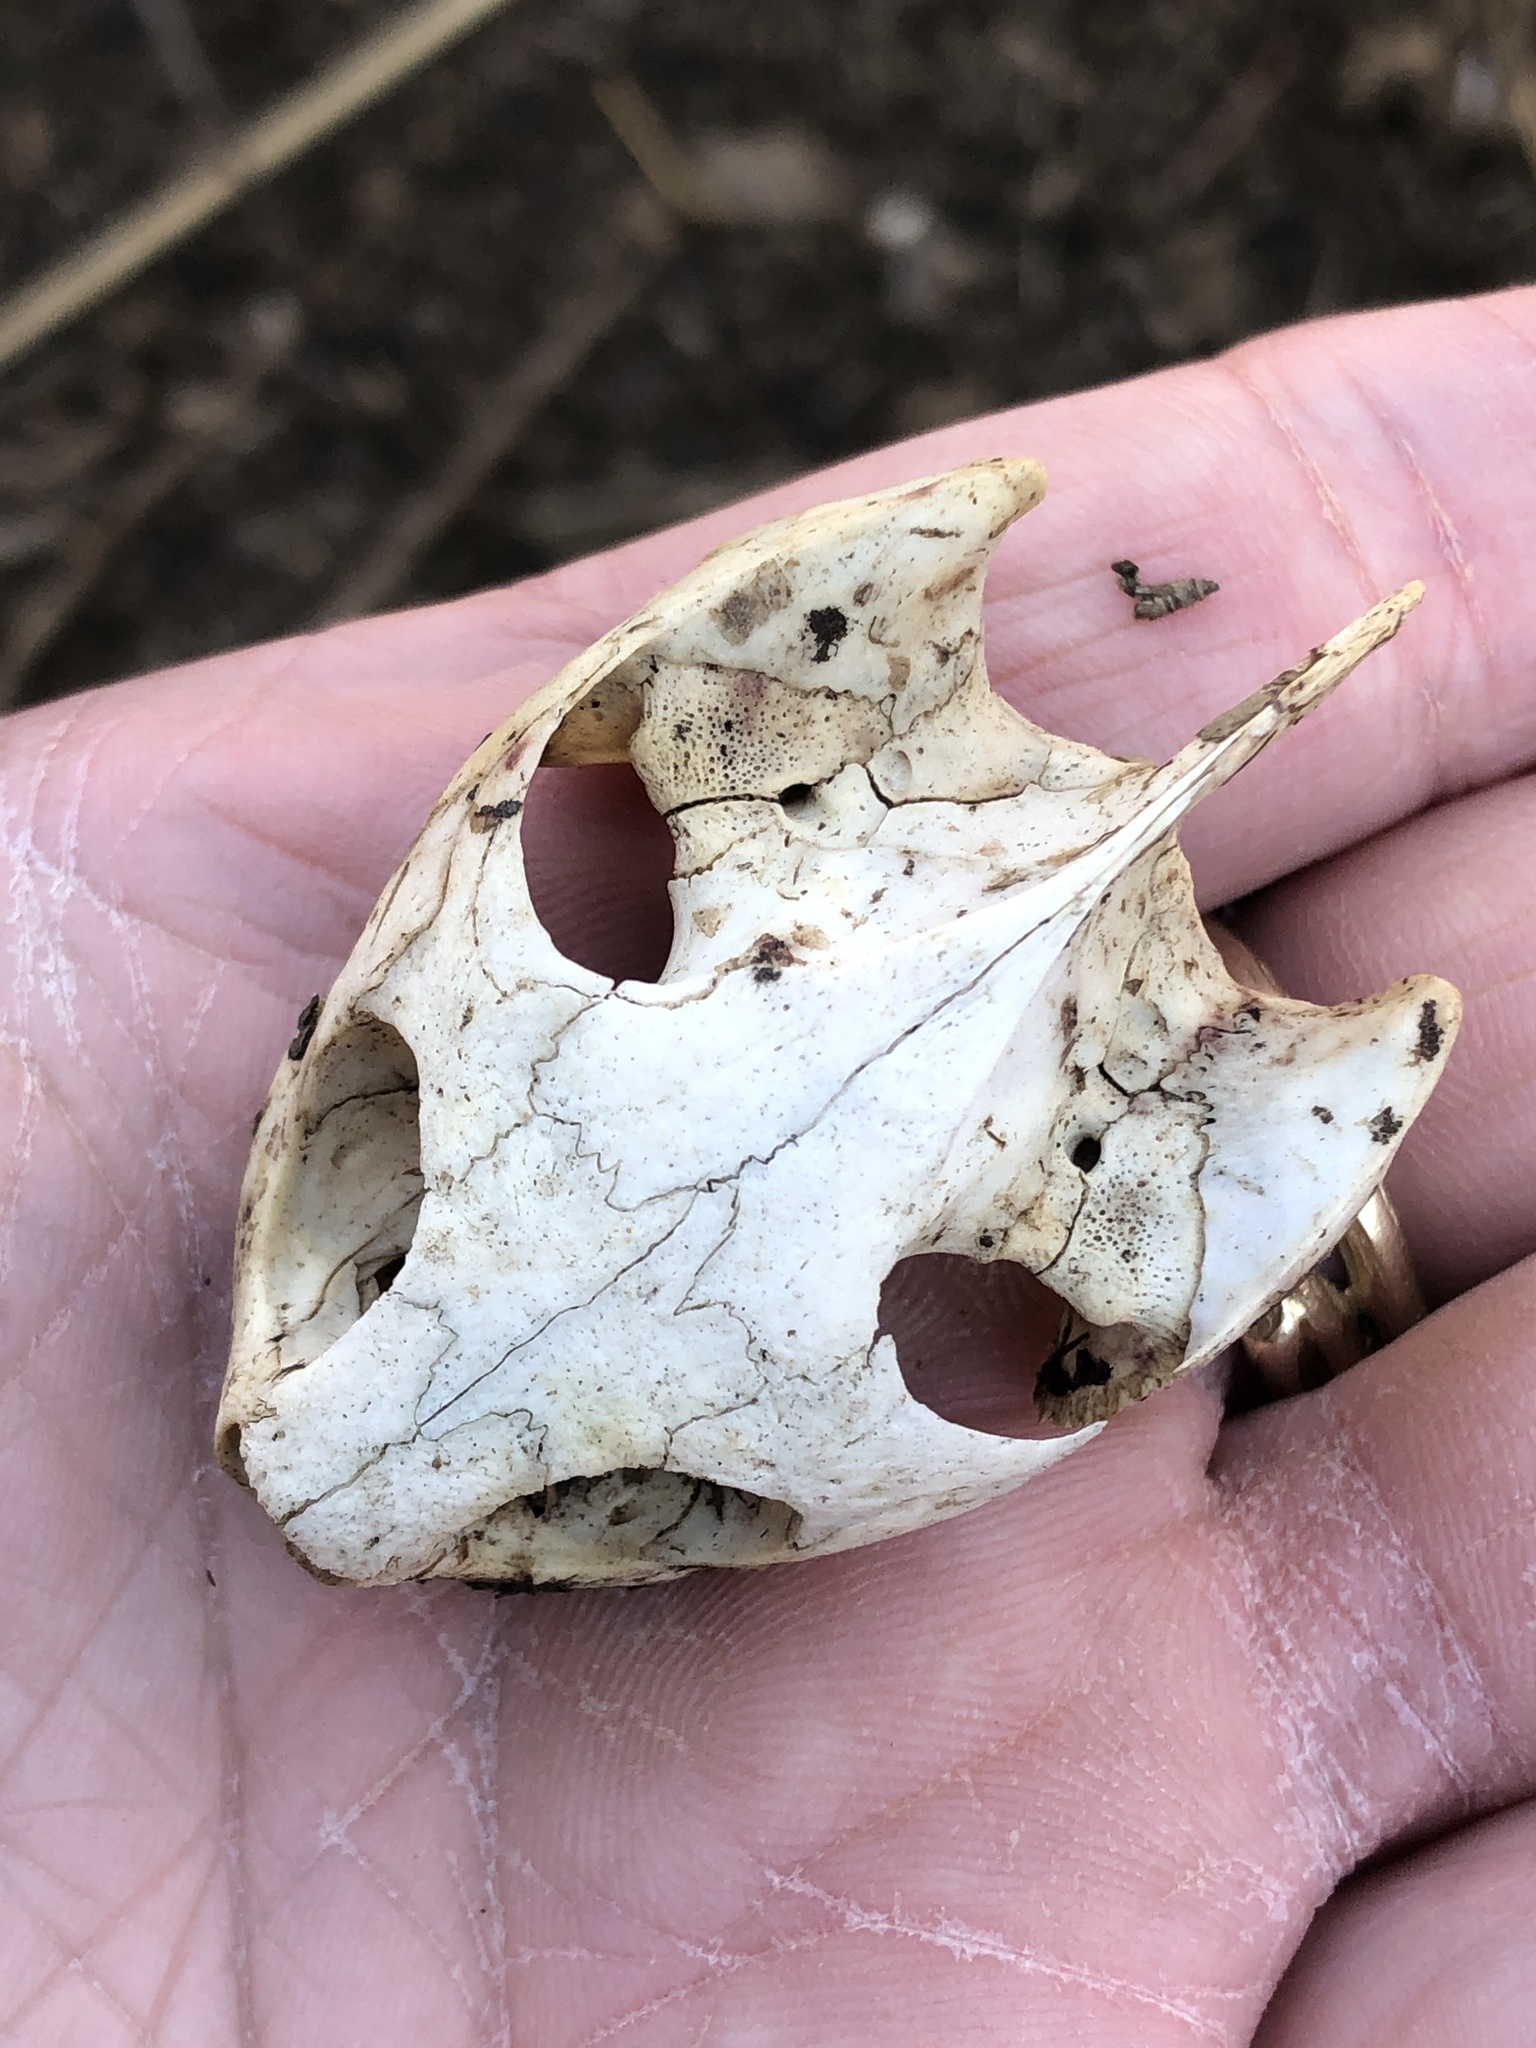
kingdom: Animalia
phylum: Chordata
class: Testudines
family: Chelydridae
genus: Chelydra
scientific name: Chelydra serpentina
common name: Common snapping turtle
